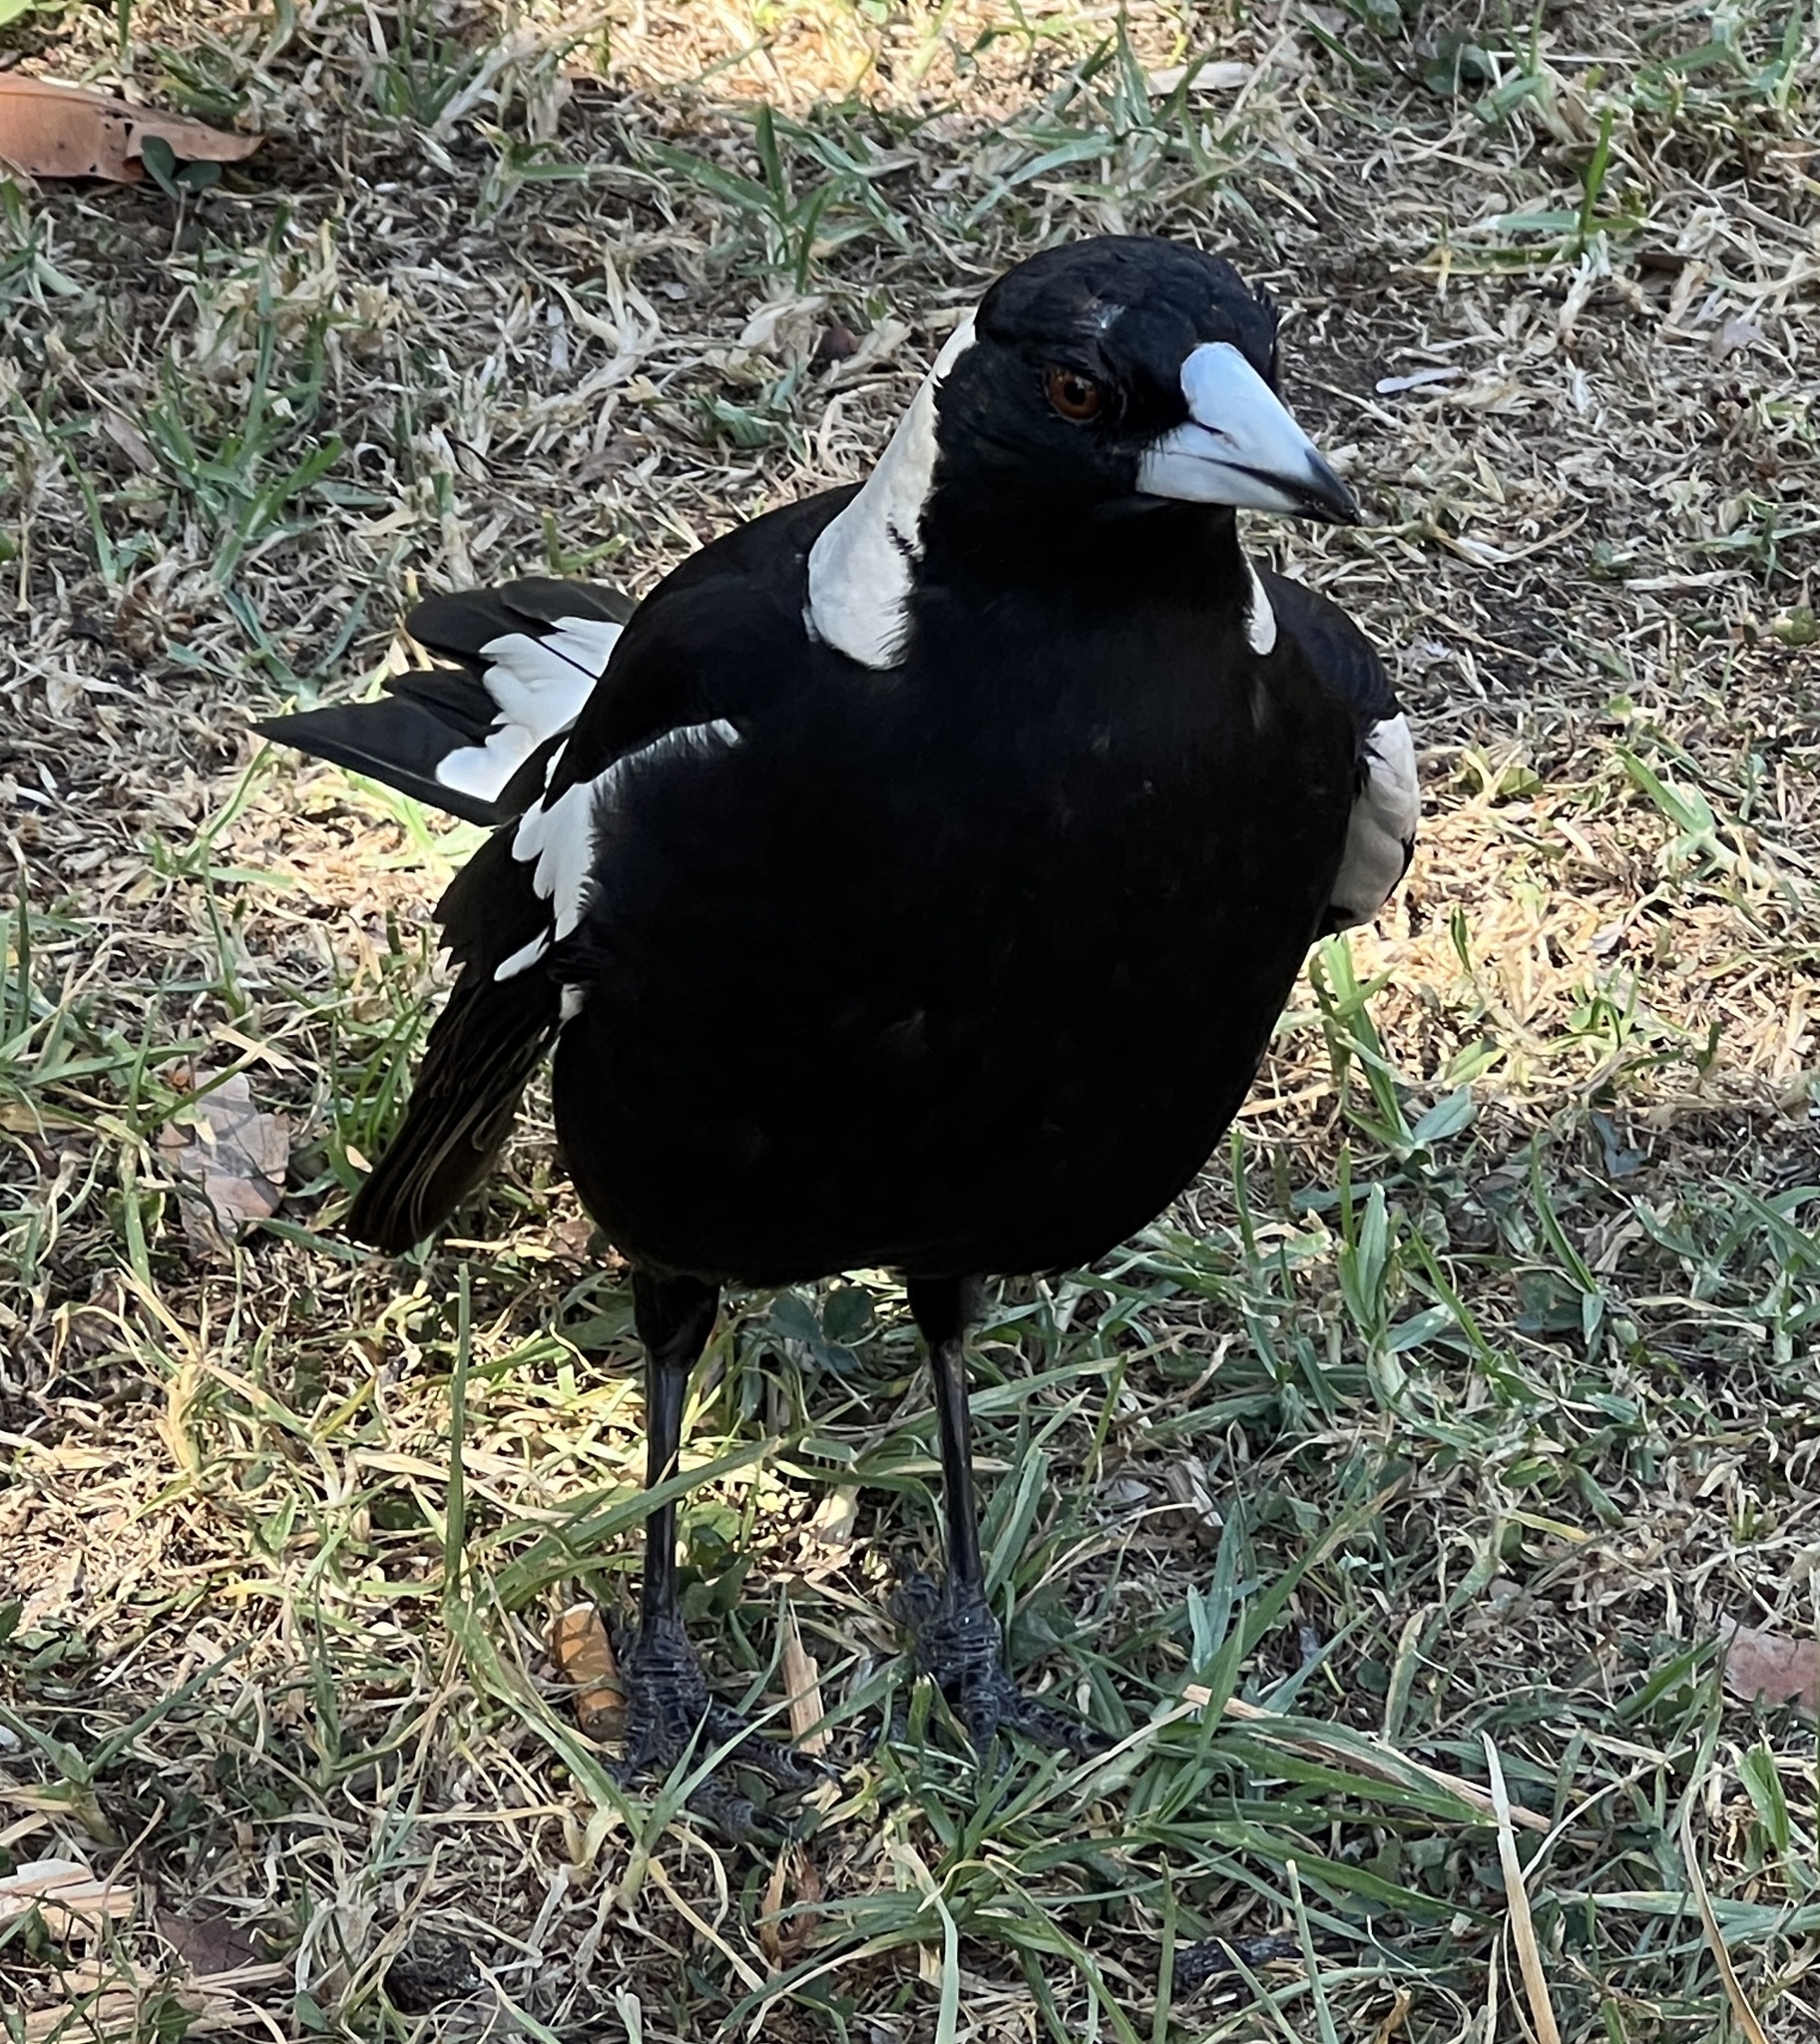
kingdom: Animalia
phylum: Chordata
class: Aves
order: Passeriformes
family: Cracticidae
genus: Gymnorhina
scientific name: Gymnorhina tibicen
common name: Australian magpie
